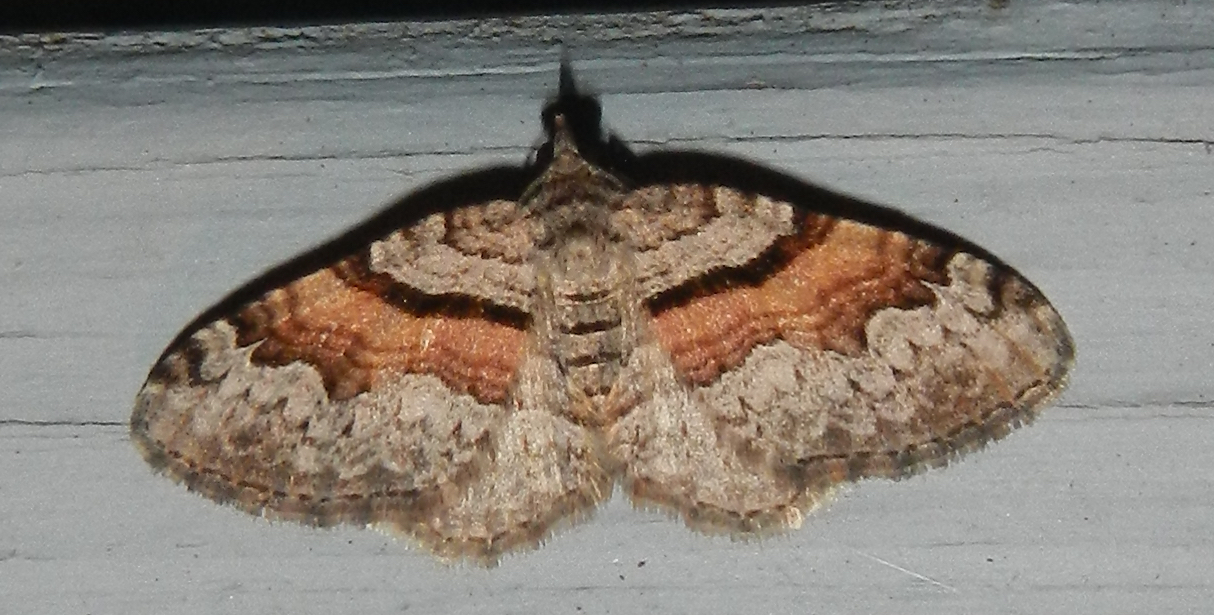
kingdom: Animalia
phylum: Arthropoda
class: Insecta
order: Lepidoptera
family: Geometridae
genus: Xanthorhoe
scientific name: Xanthorhoe packardata
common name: Packard's carpet
